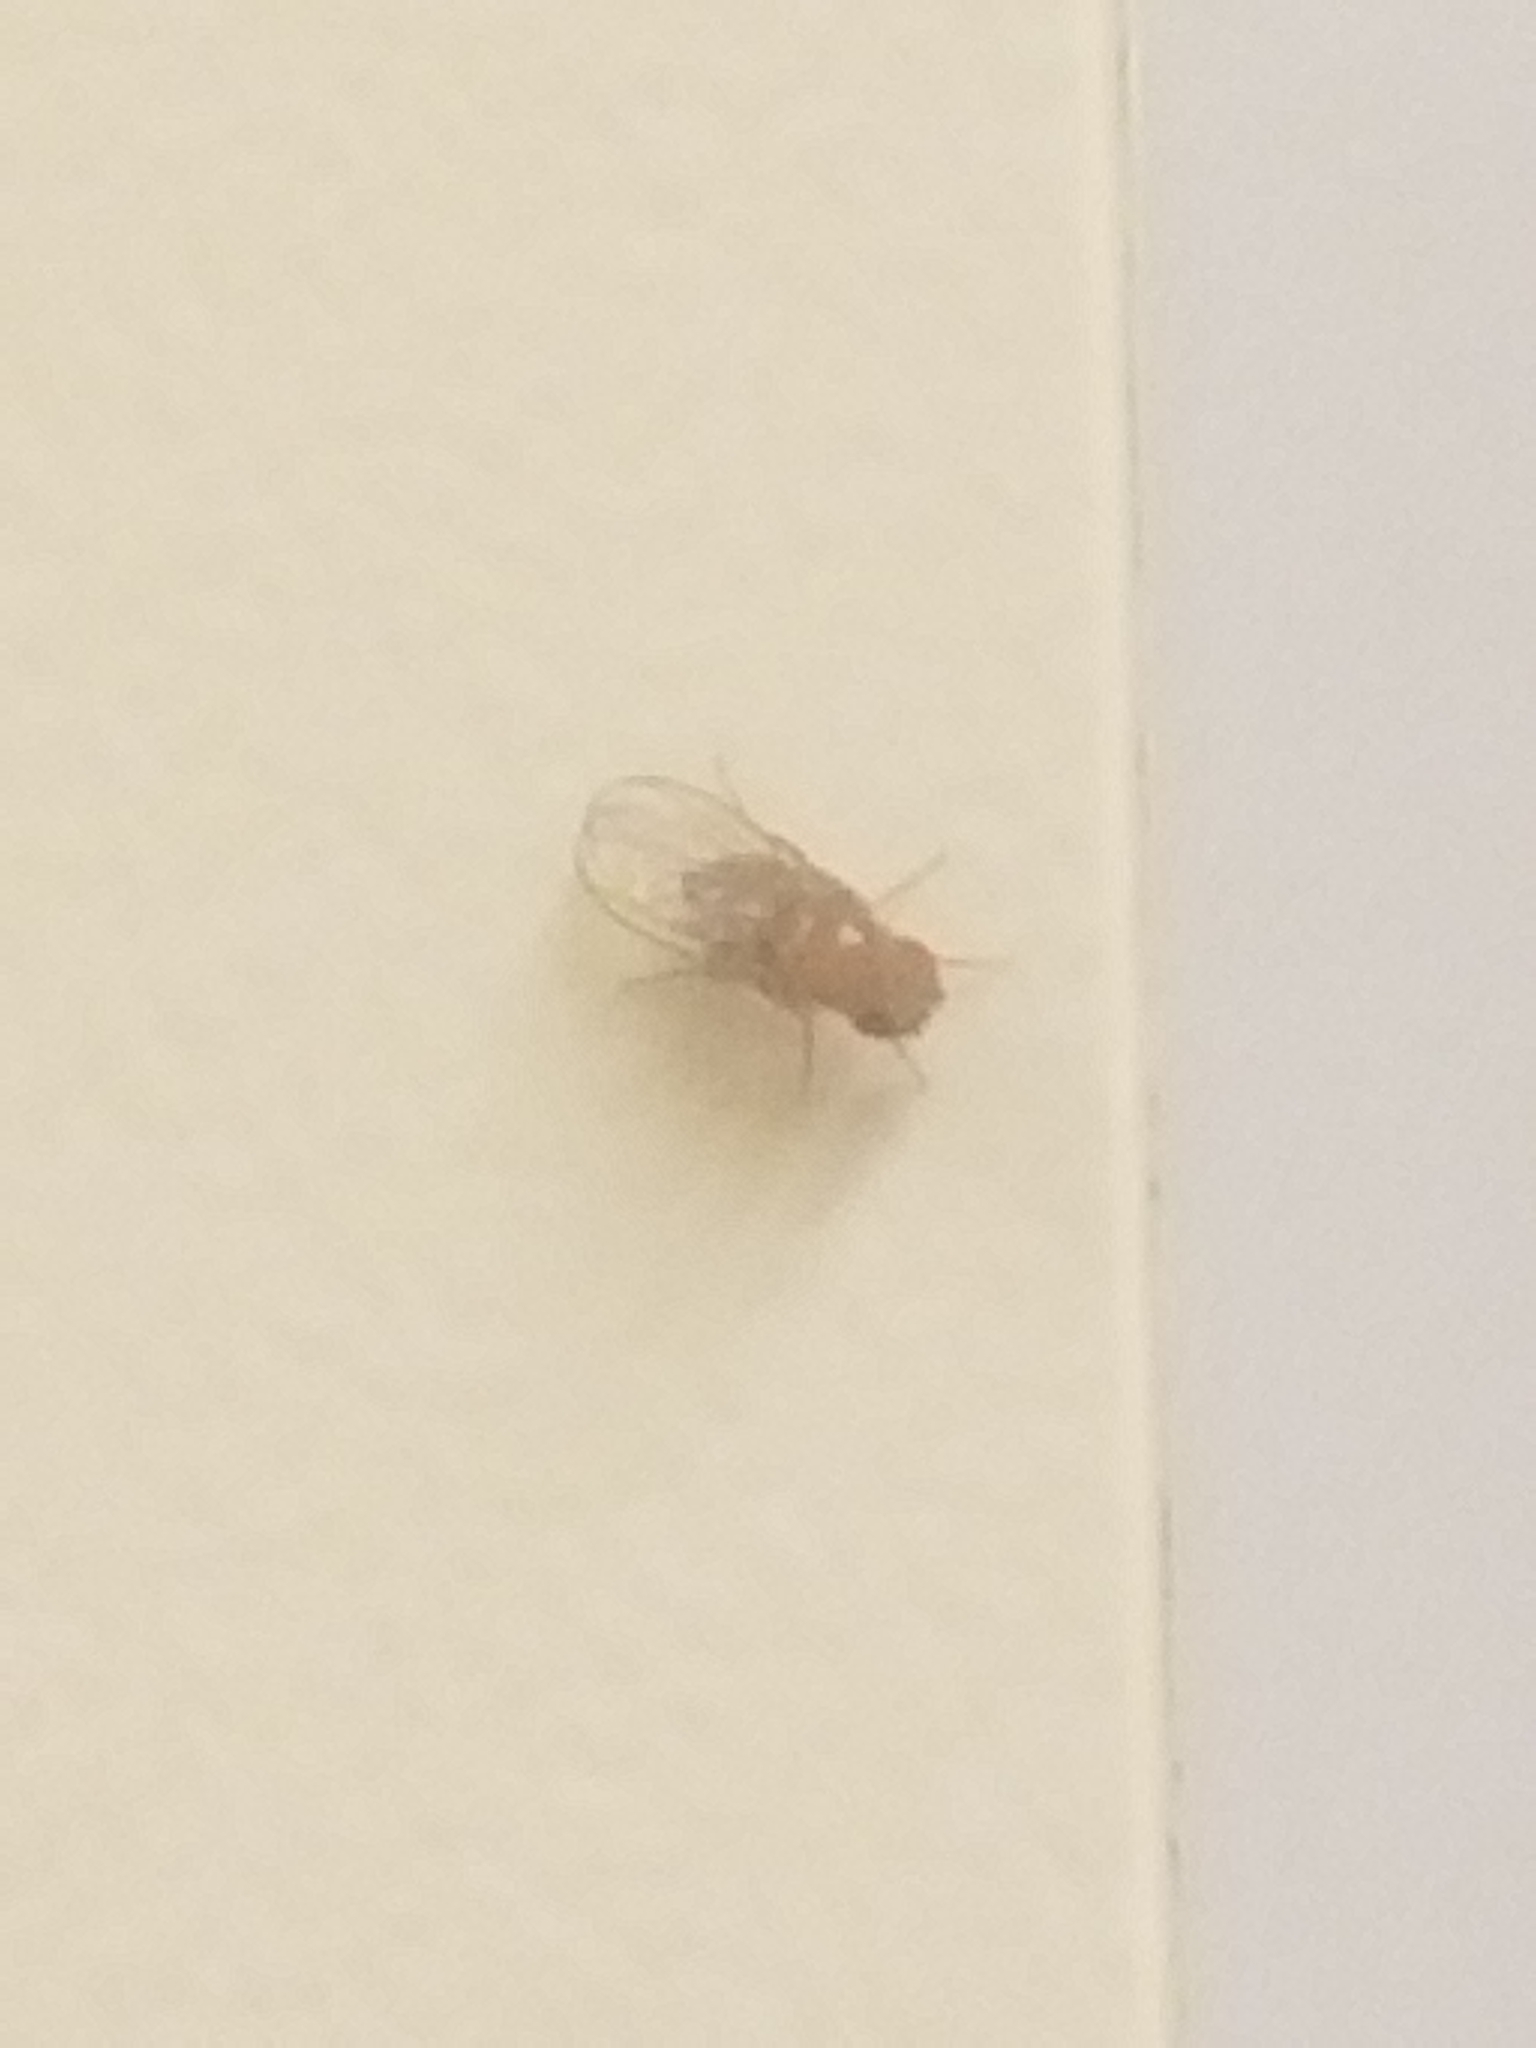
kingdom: Animalia
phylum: Arthropoda
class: Insecta
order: Diptera
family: Drosophilidae
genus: Drosophila
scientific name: Drosophila
